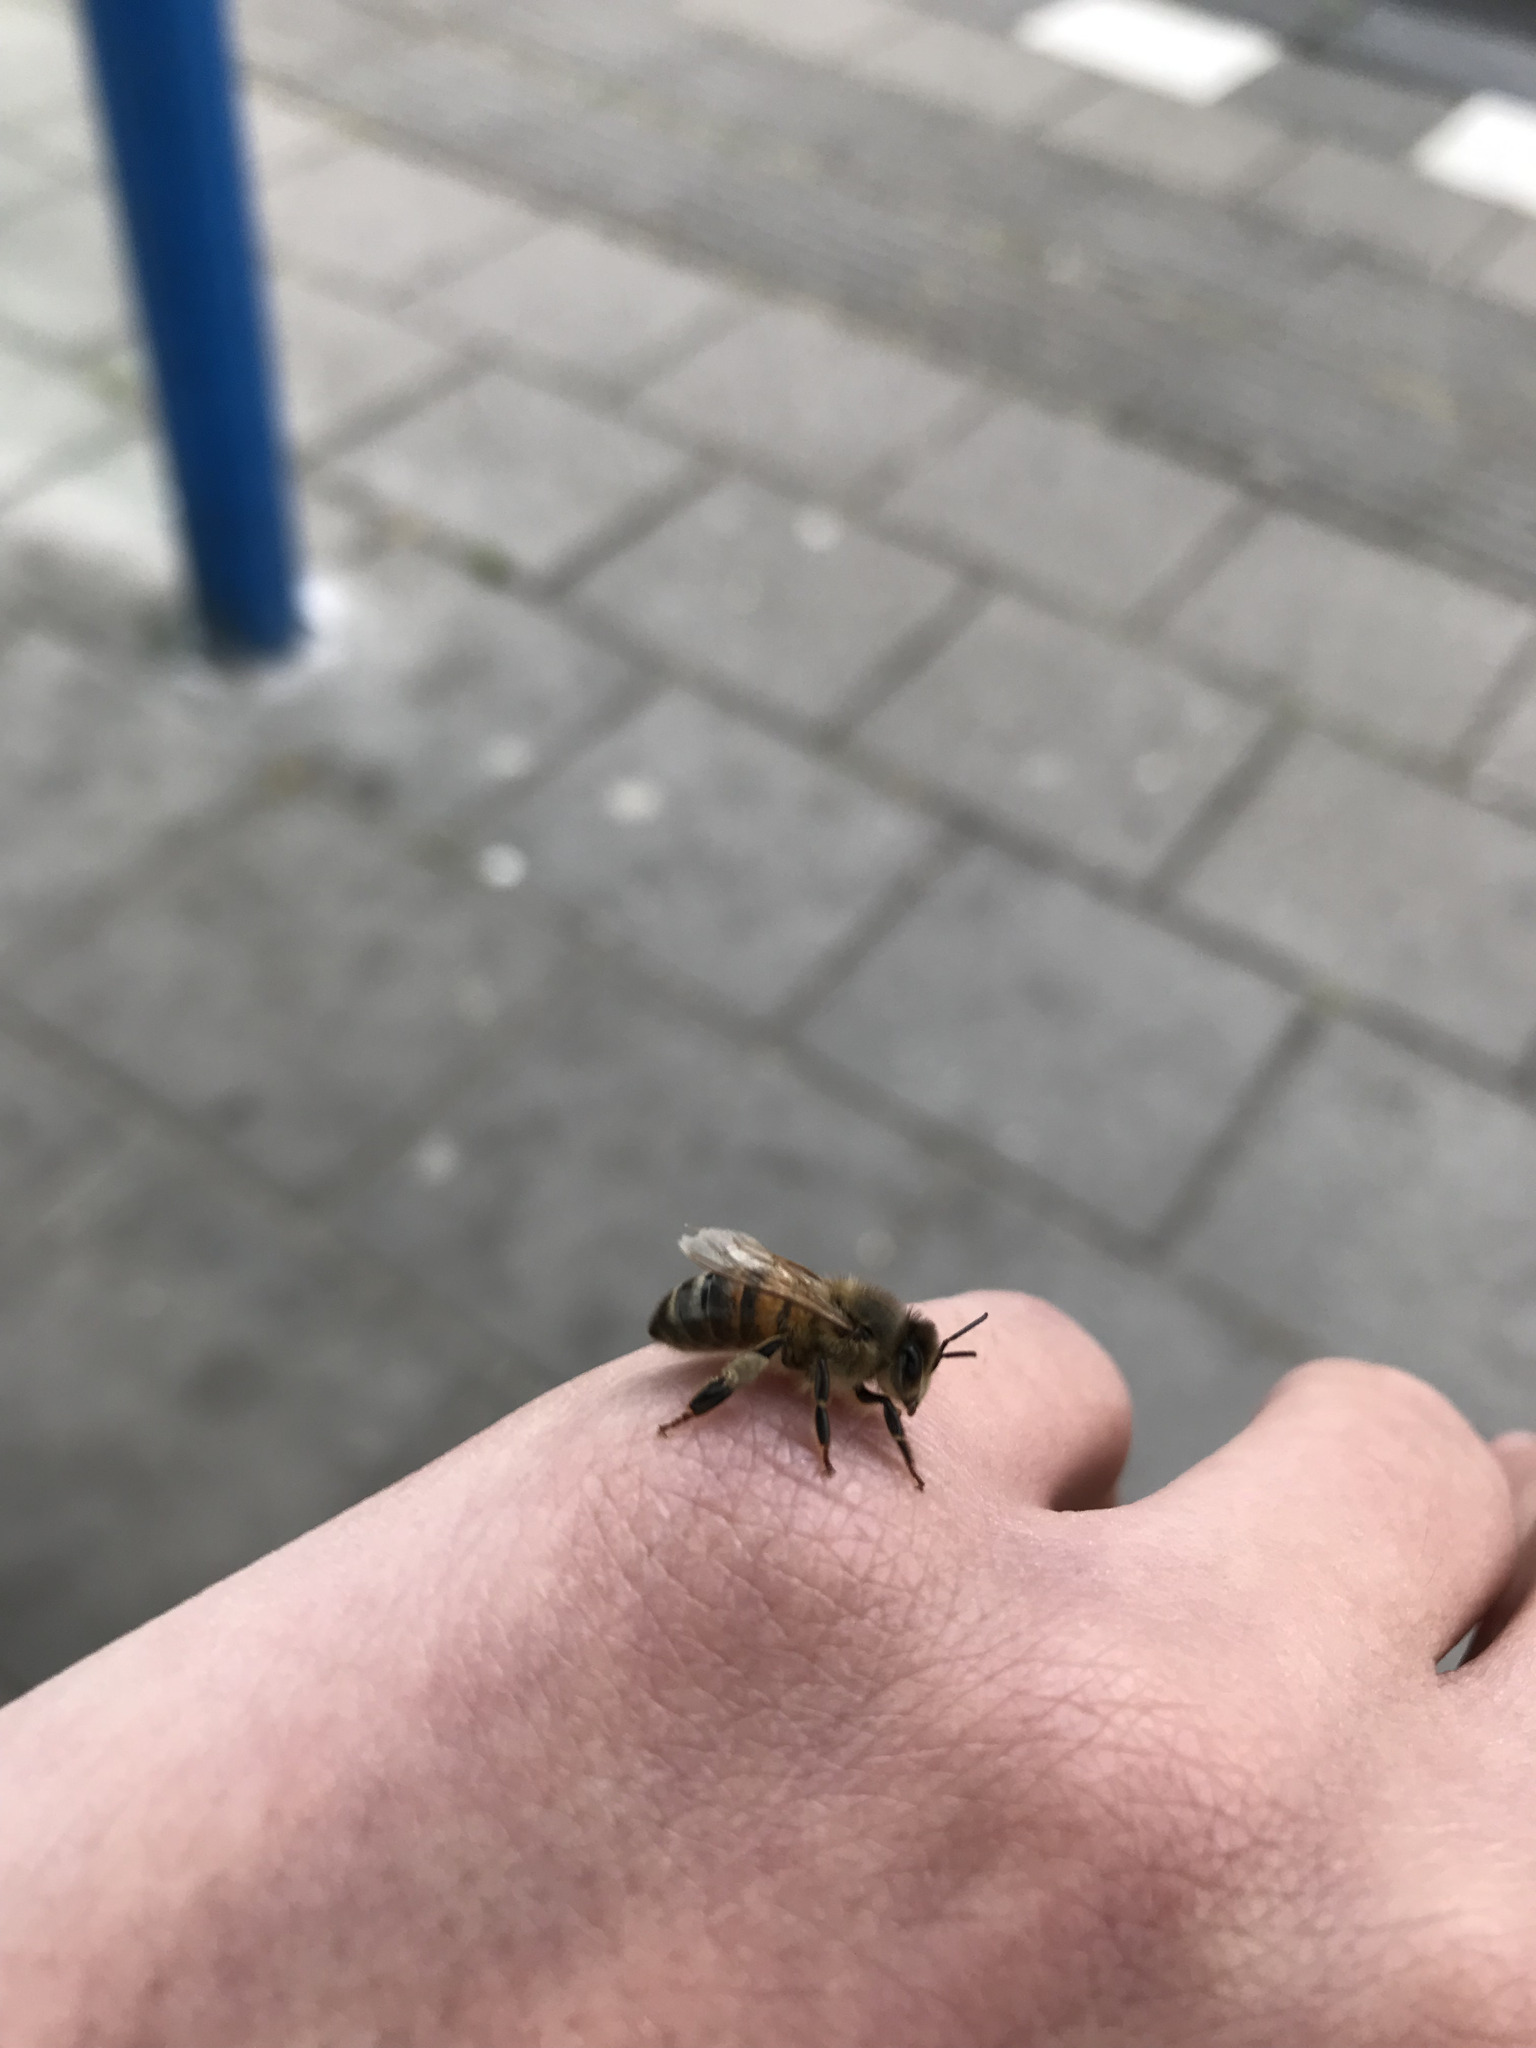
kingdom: Animalia
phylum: Arthropoda
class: Insecta
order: Hymenoptera
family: Apidae
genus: Apis
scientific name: Apis mellifera
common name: Honey bee
